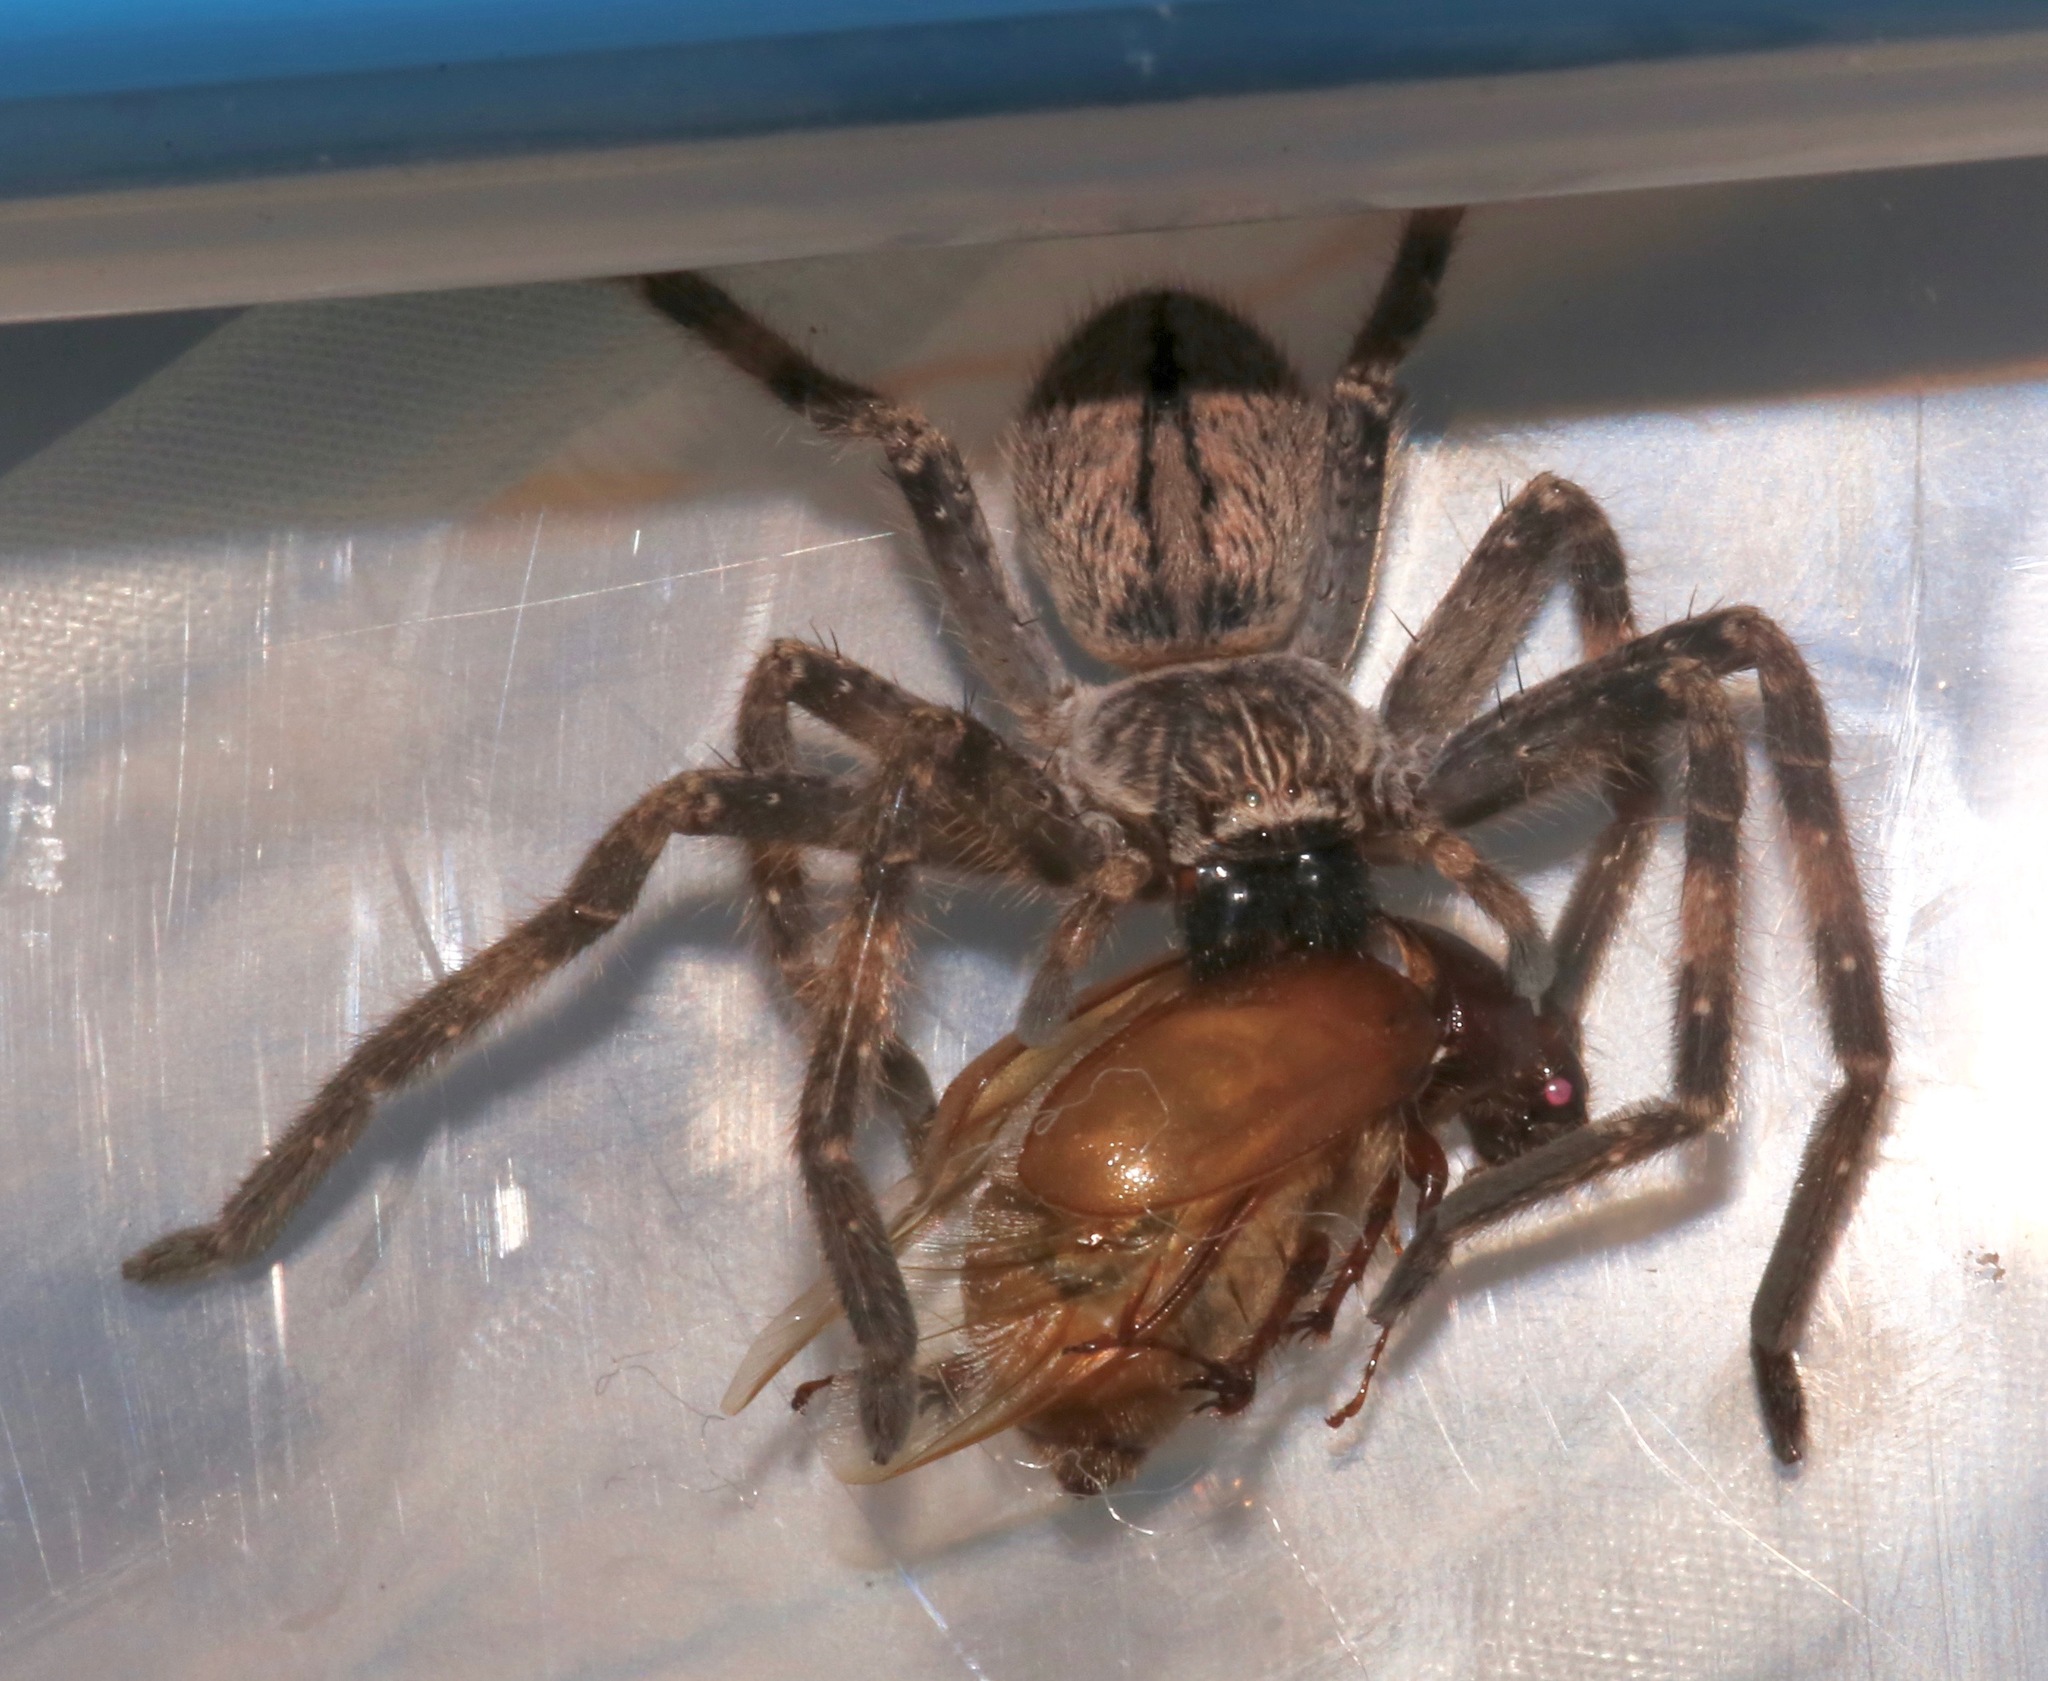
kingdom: Animalia
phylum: Arthropoda
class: Arachnida
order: Araneae
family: Sparassidae
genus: Olios
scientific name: Olios giganteus
